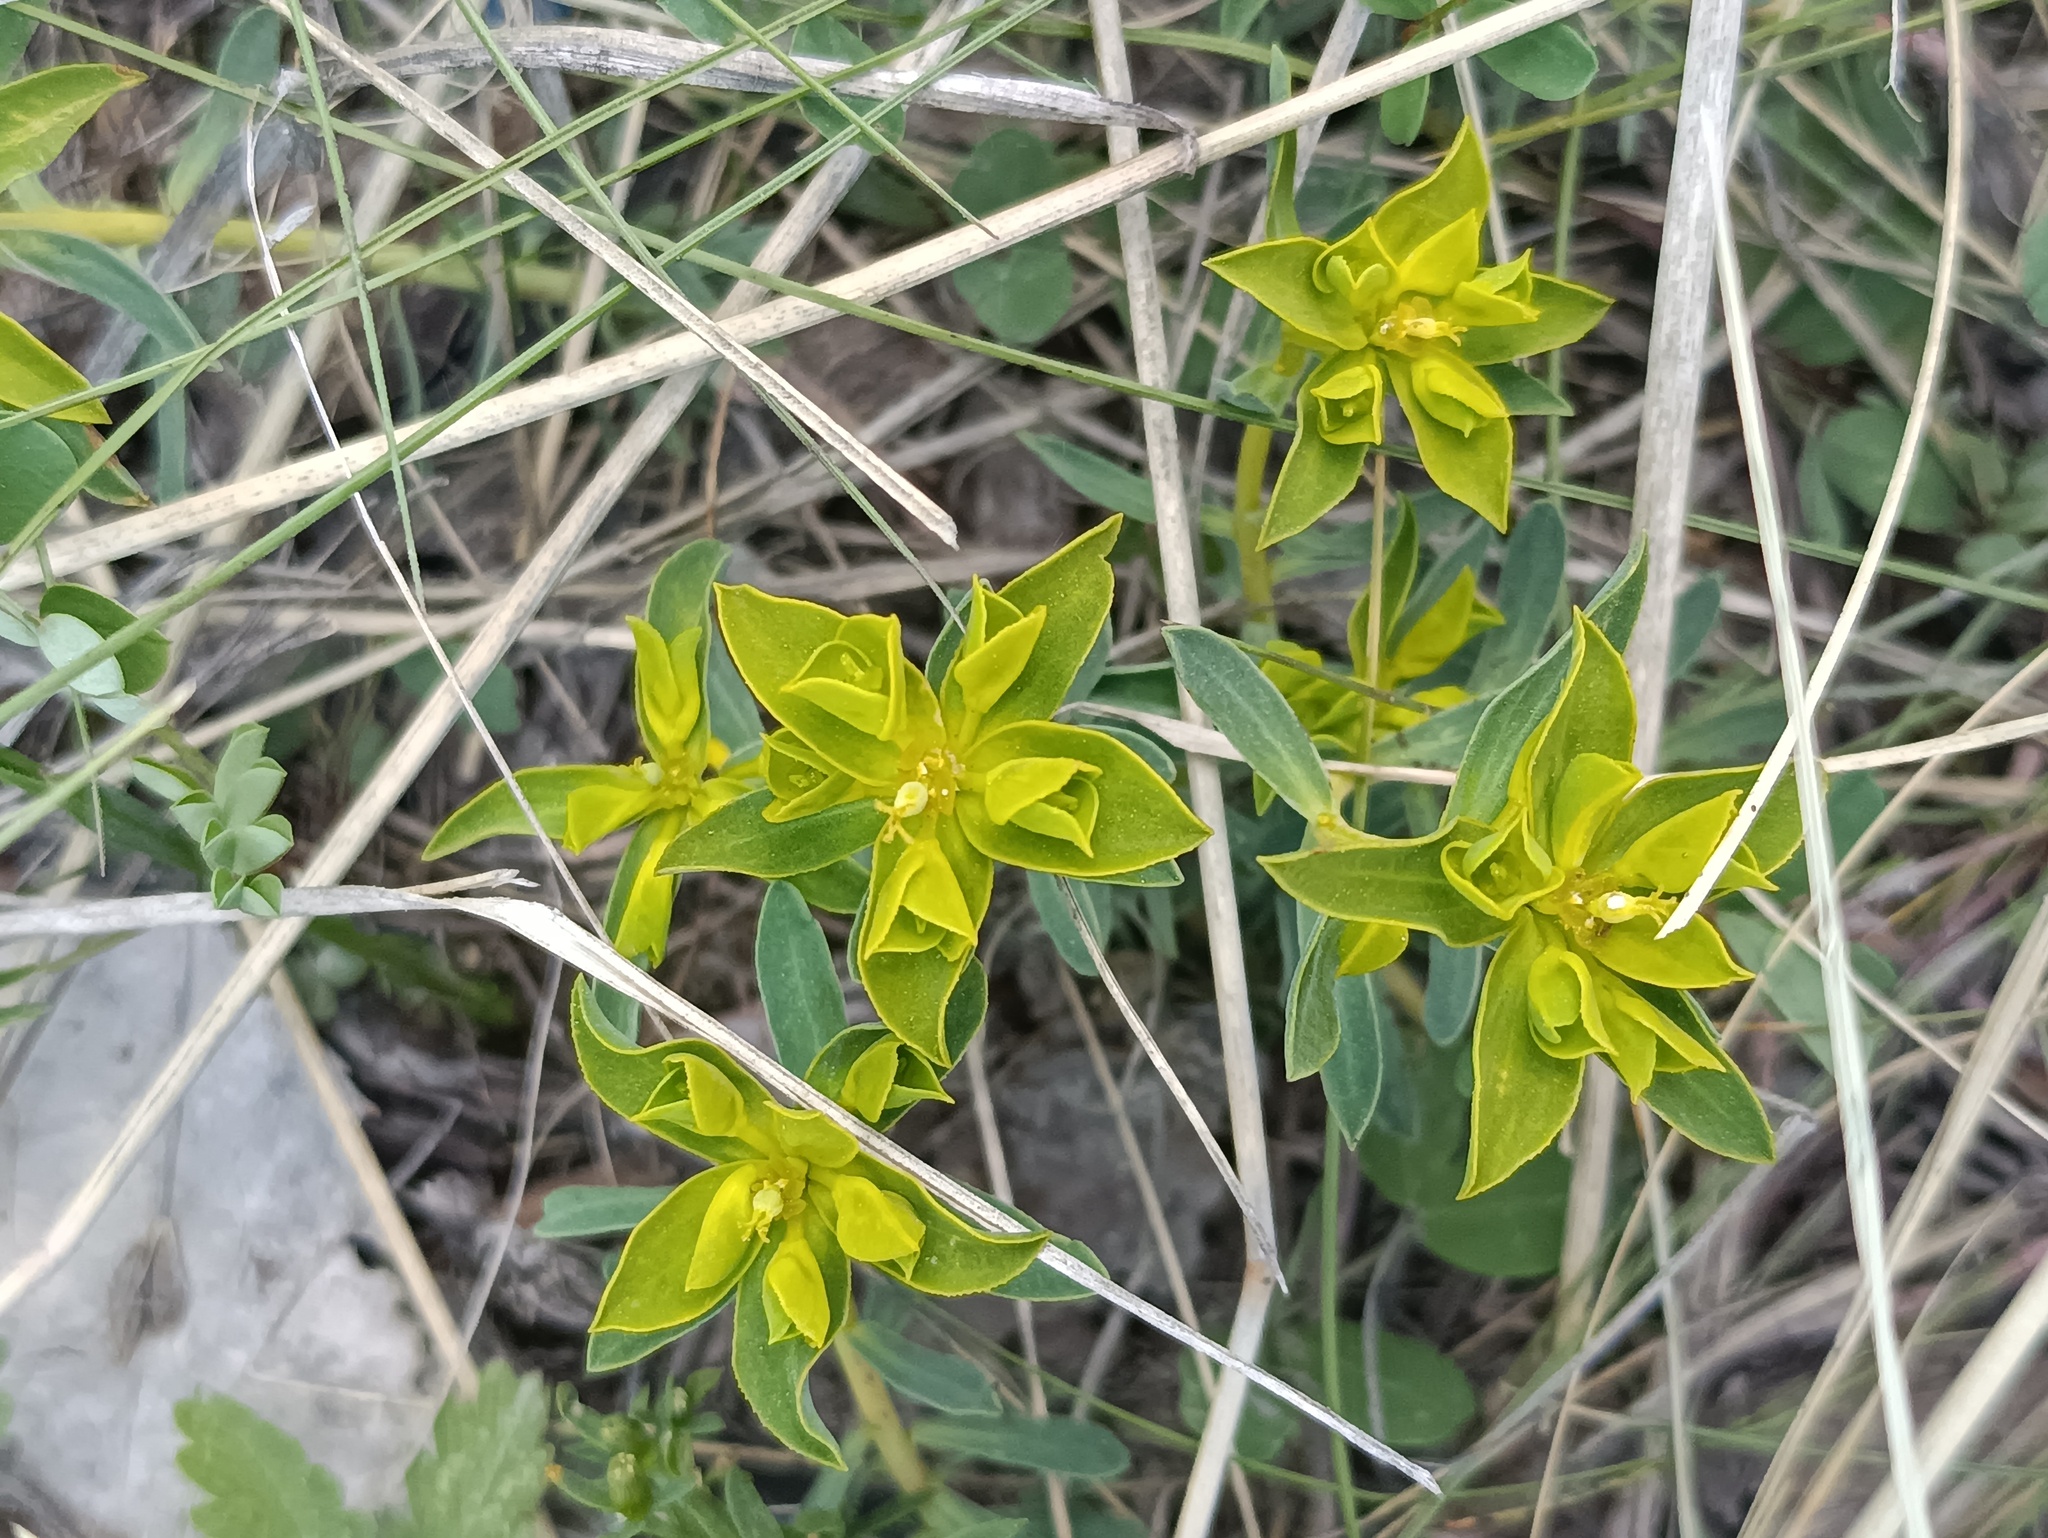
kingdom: Plantae
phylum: Tracheophyta
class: Magnoliopsida
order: Malpighiales
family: Euphorbiaceae
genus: Euphorbia
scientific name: Euphorbia glareosa
